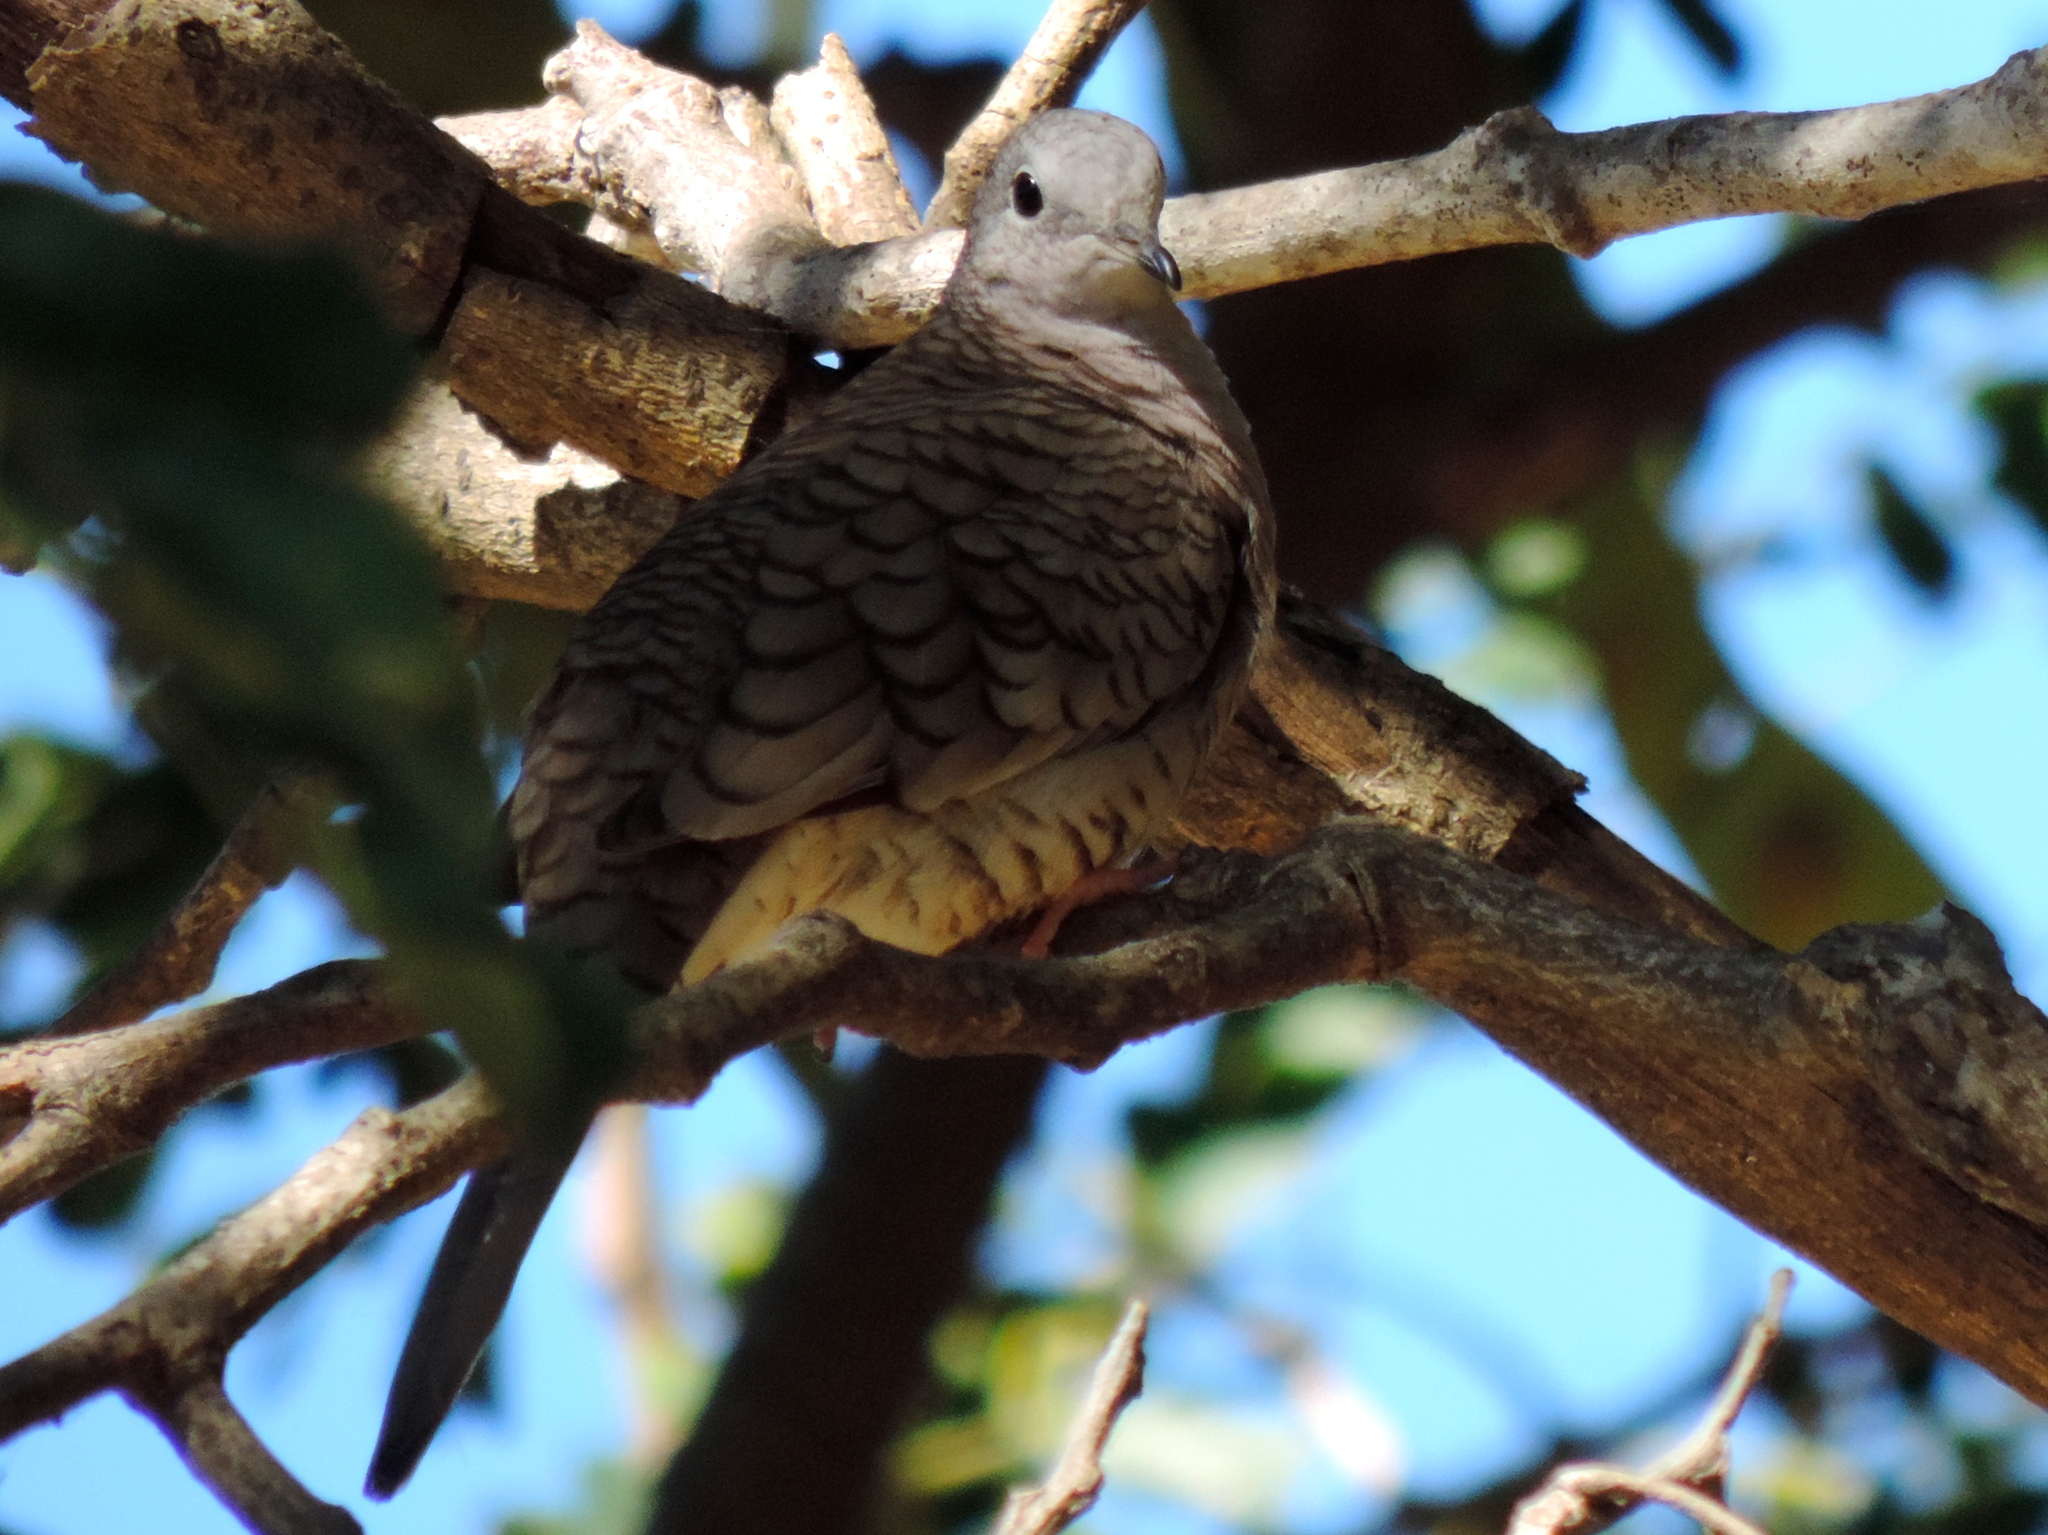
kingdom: Animalia
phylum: Chordata
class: Aves
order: Columbiformes
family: Columbidae
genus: Columbina
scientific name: Columbina inca
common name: Inca dove
